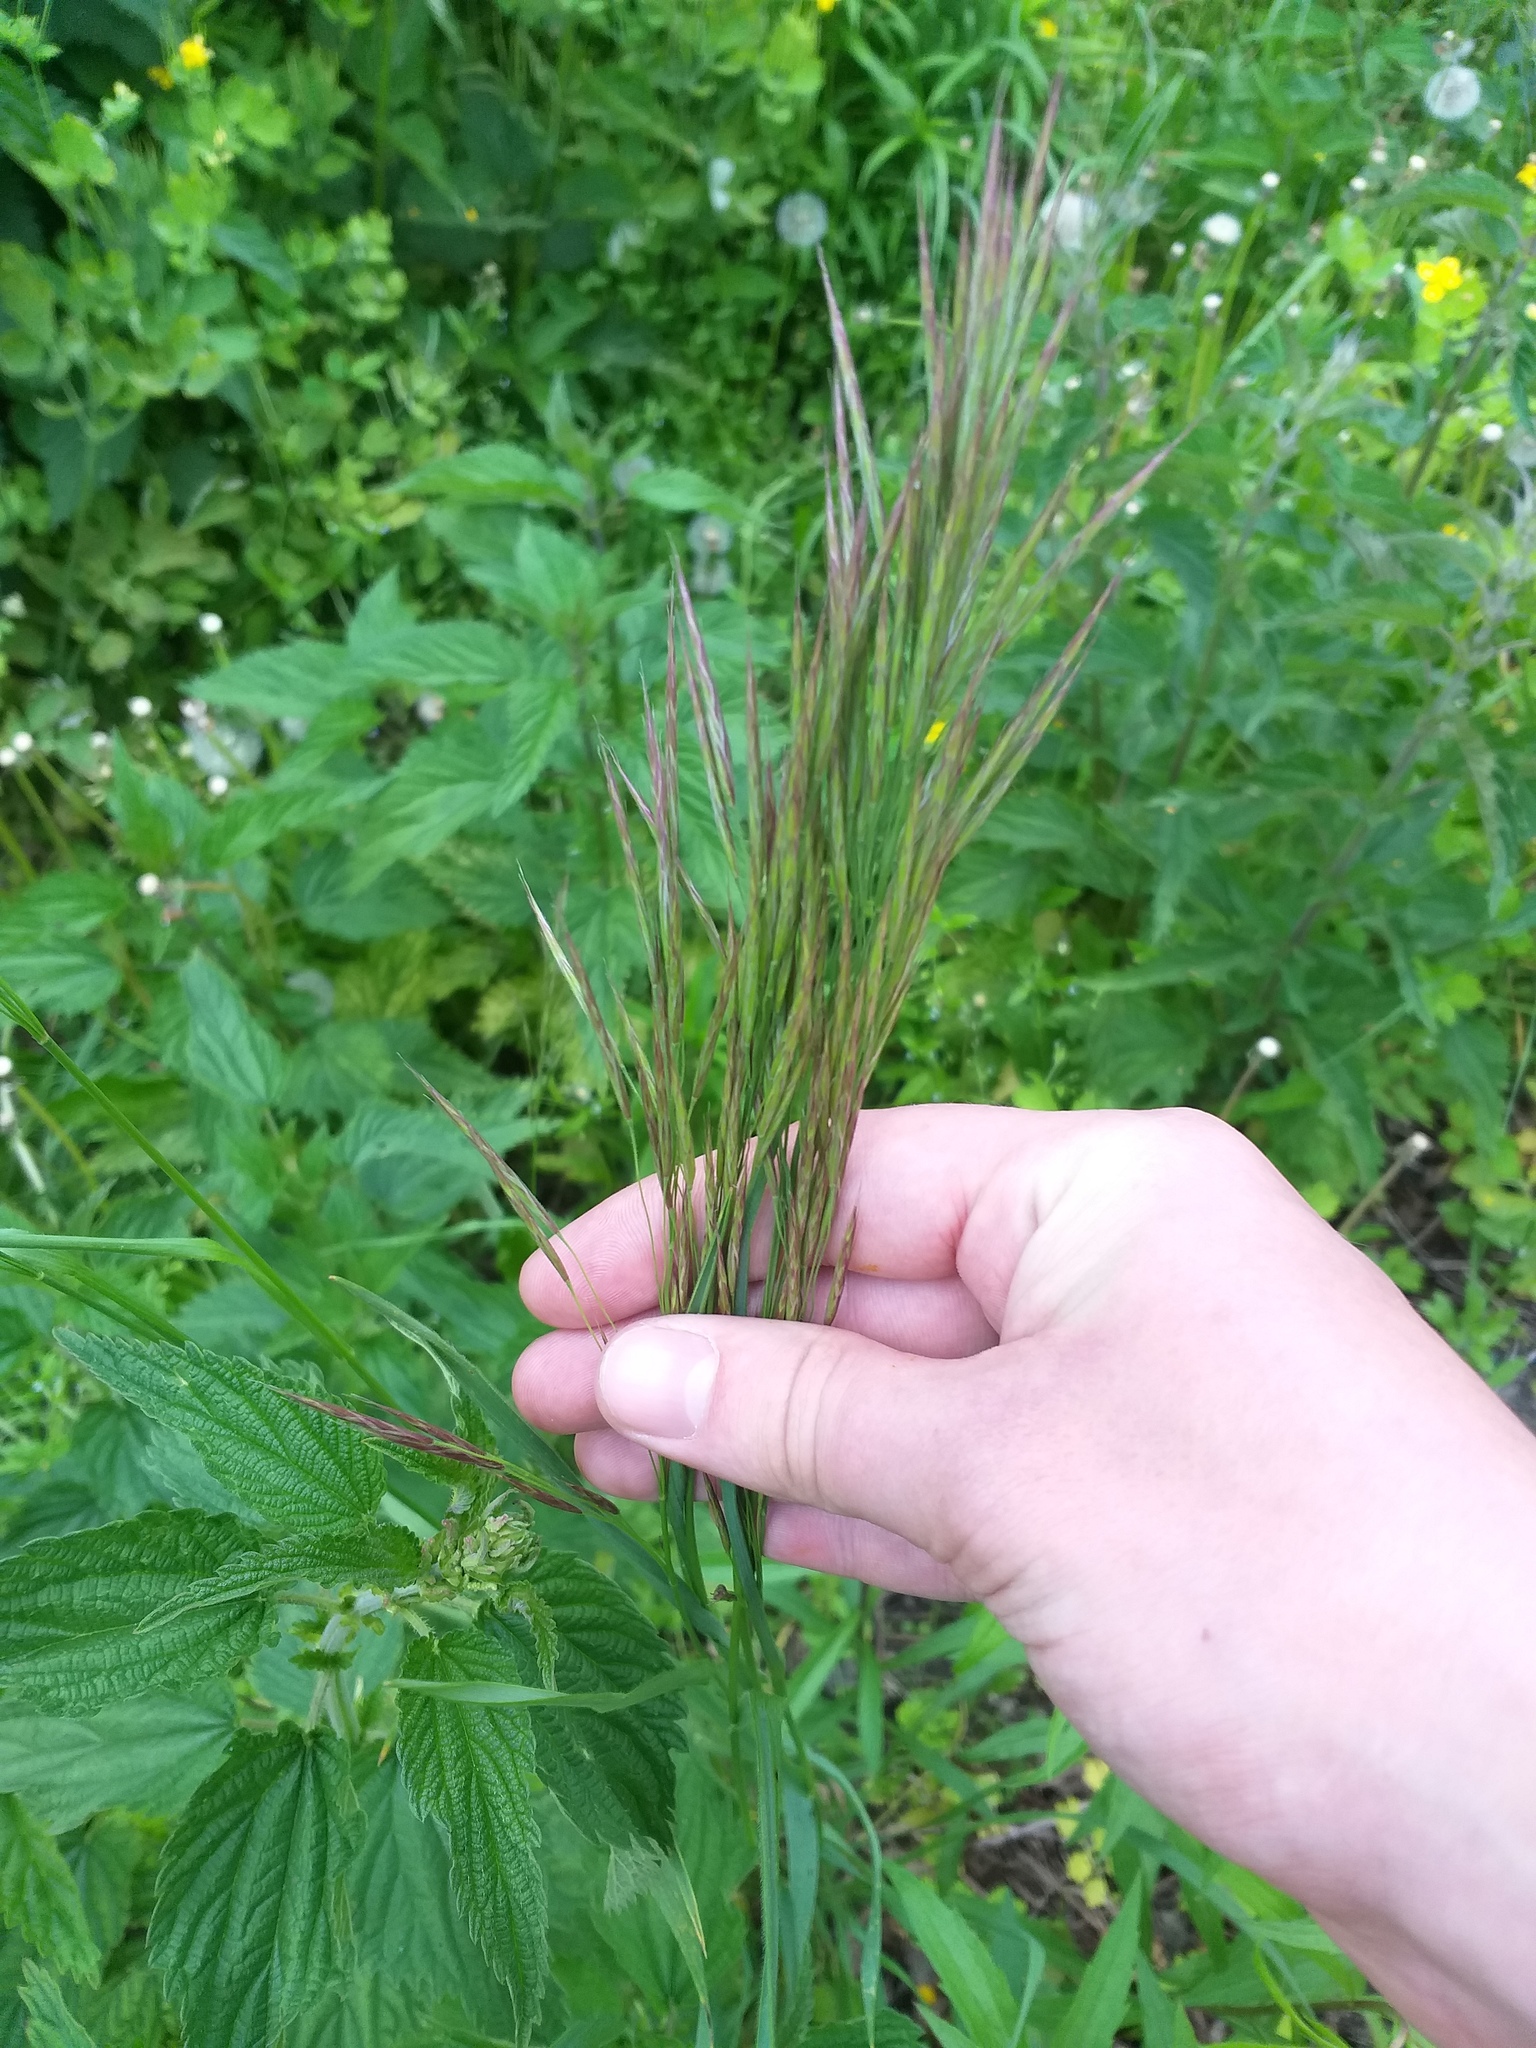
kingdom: Plantae
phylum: Tracheophyta
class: Liliopsida
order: Poales
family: Poaceae
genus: Bromus
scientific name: Bromus inermis
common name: Smooth brome
